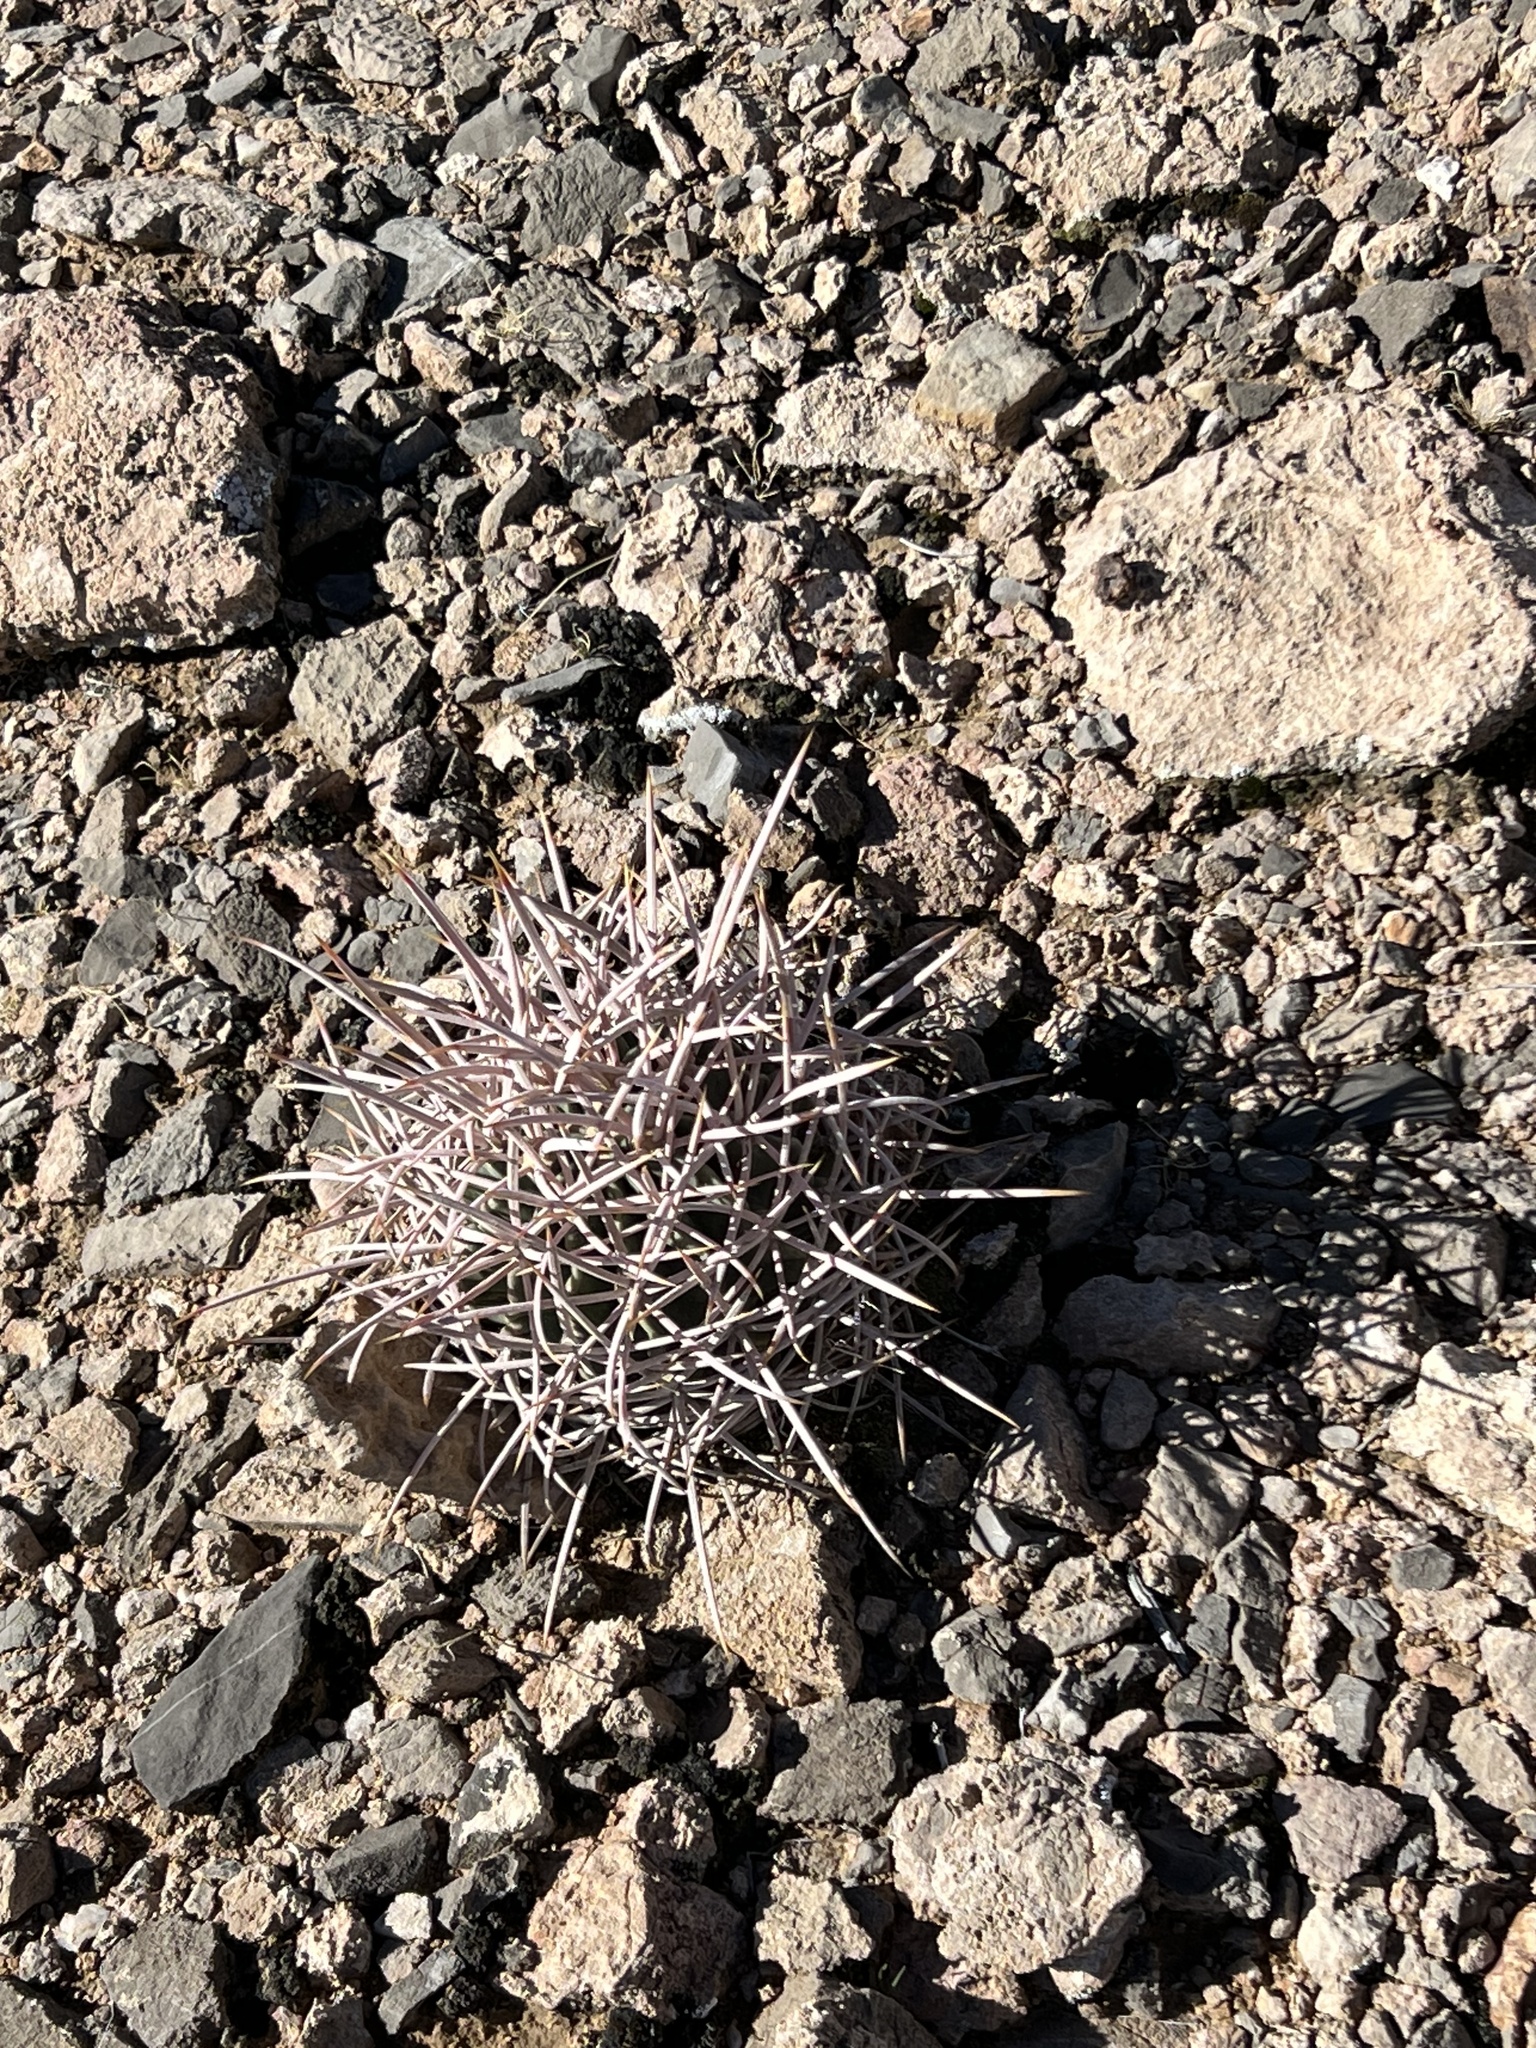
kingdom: Plantae
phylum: Tracheophyta
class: Magnoliopsida
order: Caryophyllales
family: Cactaceae
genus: Echinocactus
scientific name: Echinocactus polycephalus
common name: Cottontop cactus
